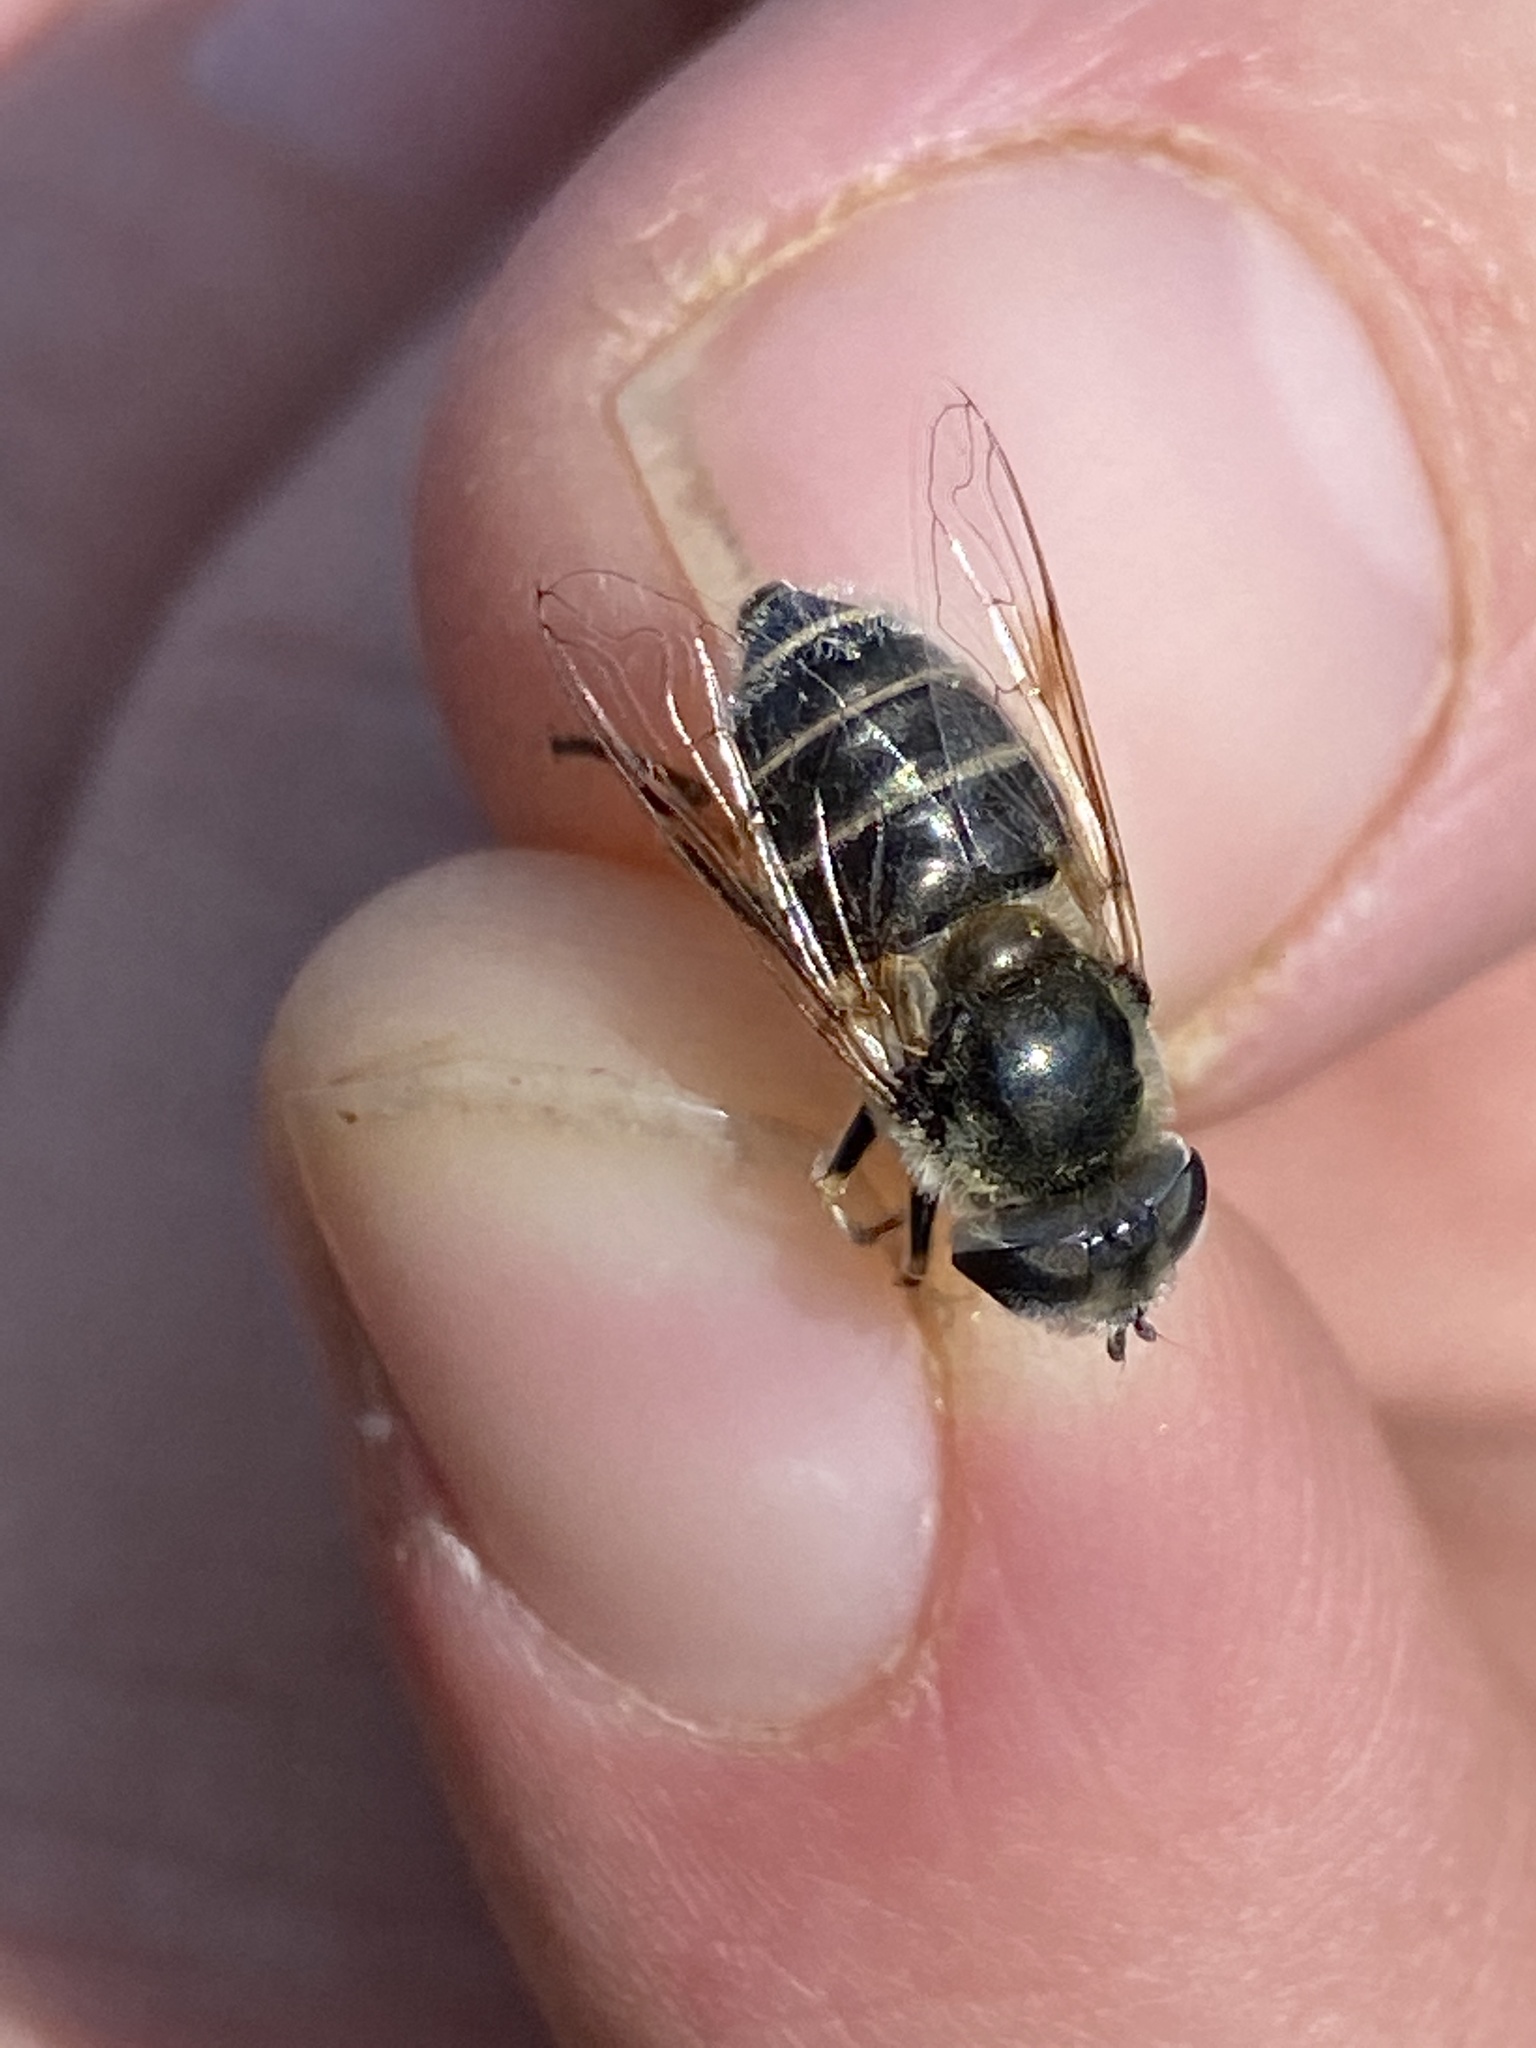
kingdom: Animalia
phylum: Arthropoda
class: Insecta
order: Diptera
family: Syrphidae
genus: Eristalis
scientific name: Eristalis stipator
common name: Yellow-shouldered drone fly
